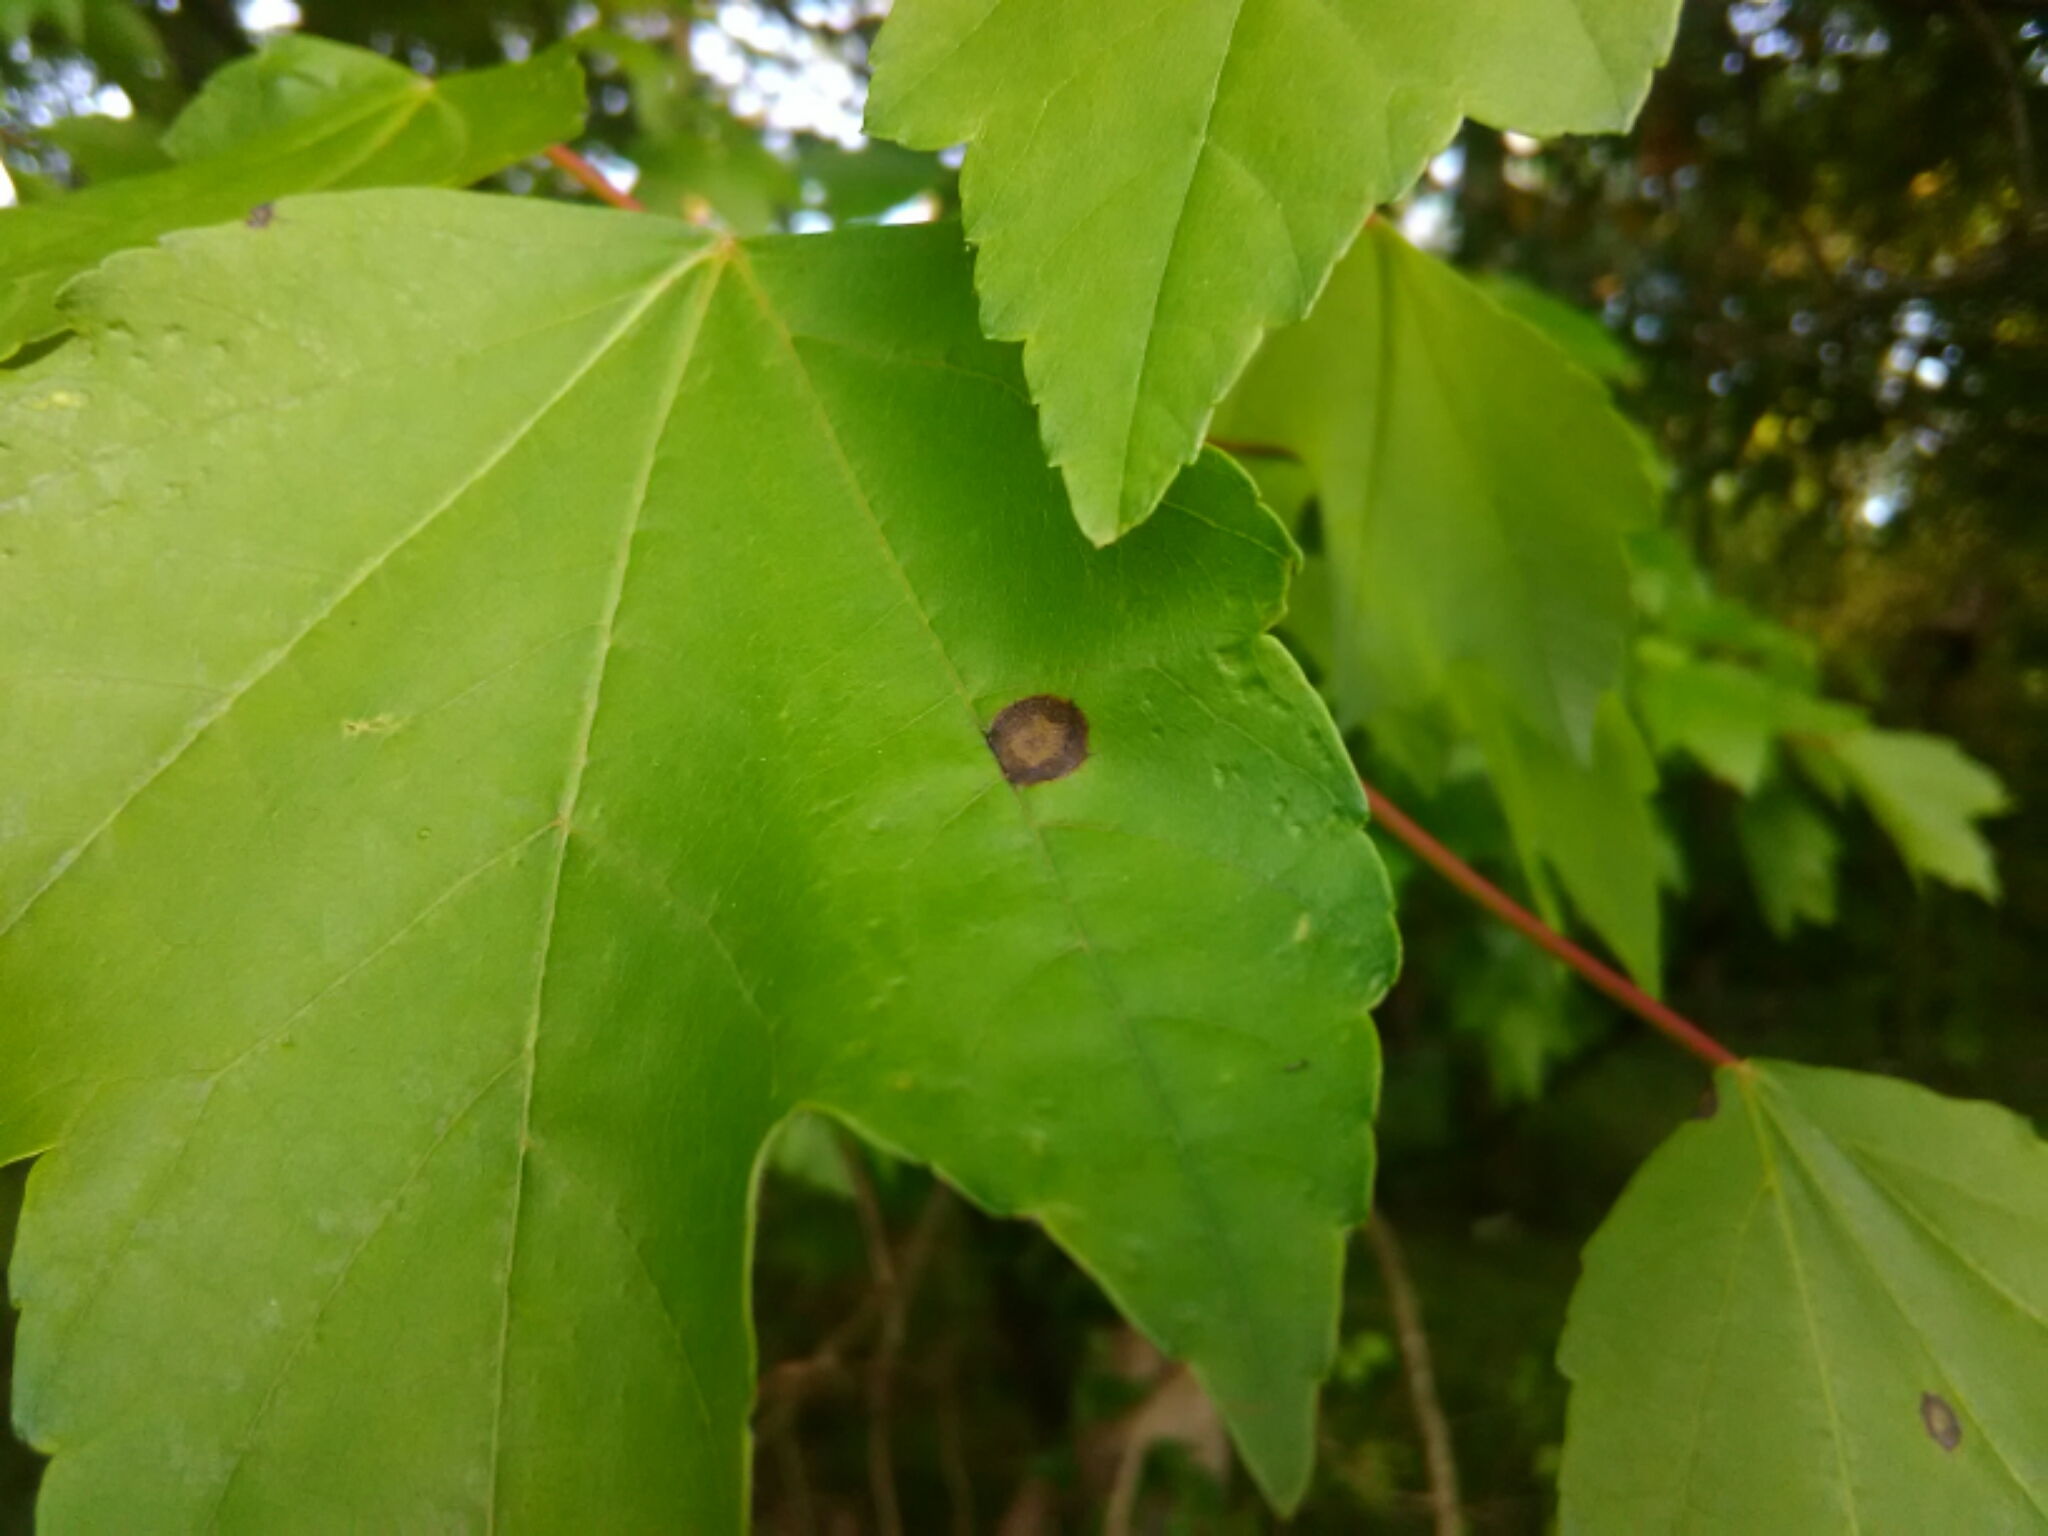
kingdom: Animalia
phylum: Arthropoda
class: Insecta
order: Diptera
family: Cecidomyiidae
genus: Acericecis
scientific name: Acericecis ocellaris
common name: Ocellate gall midge
